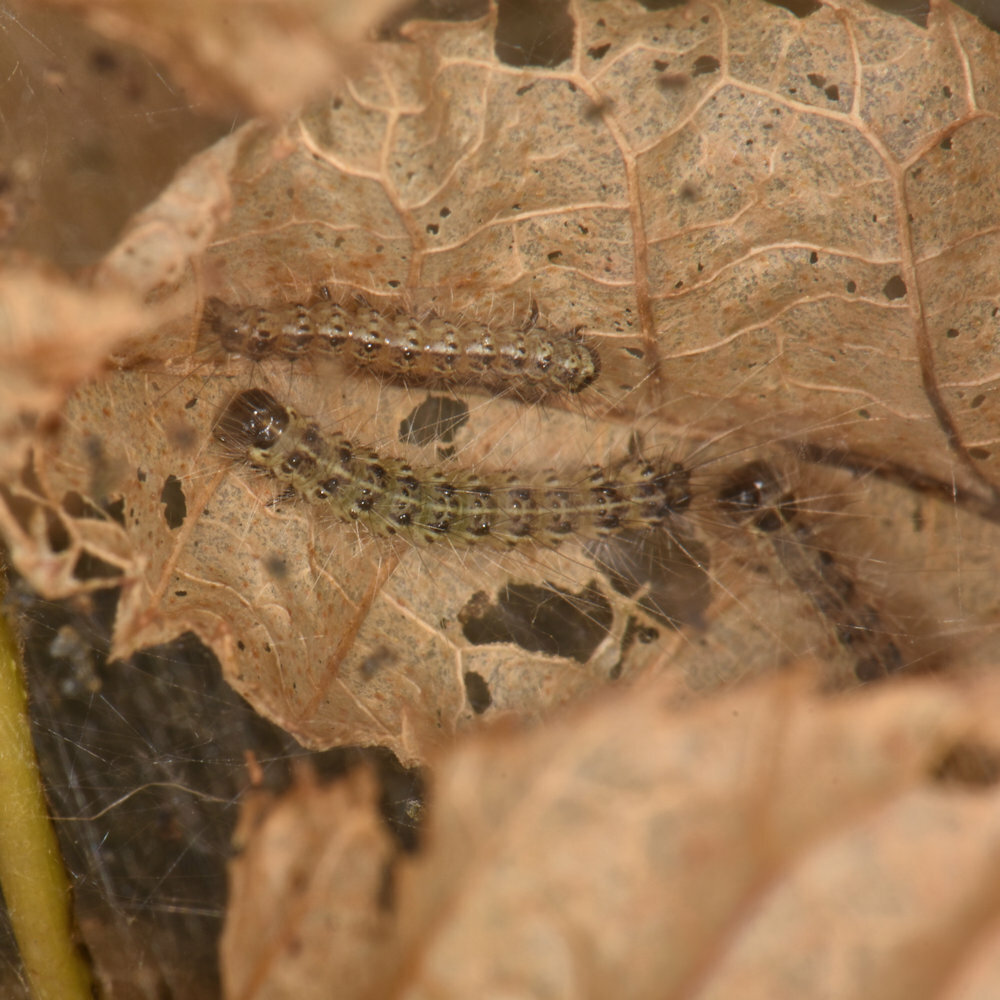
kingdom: Animalia
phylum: Arthropoda
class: Insecta
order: Lepidoptera
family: Erebidae
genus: Hyphantria
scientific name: Hyphantria cunea
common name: American white moth
